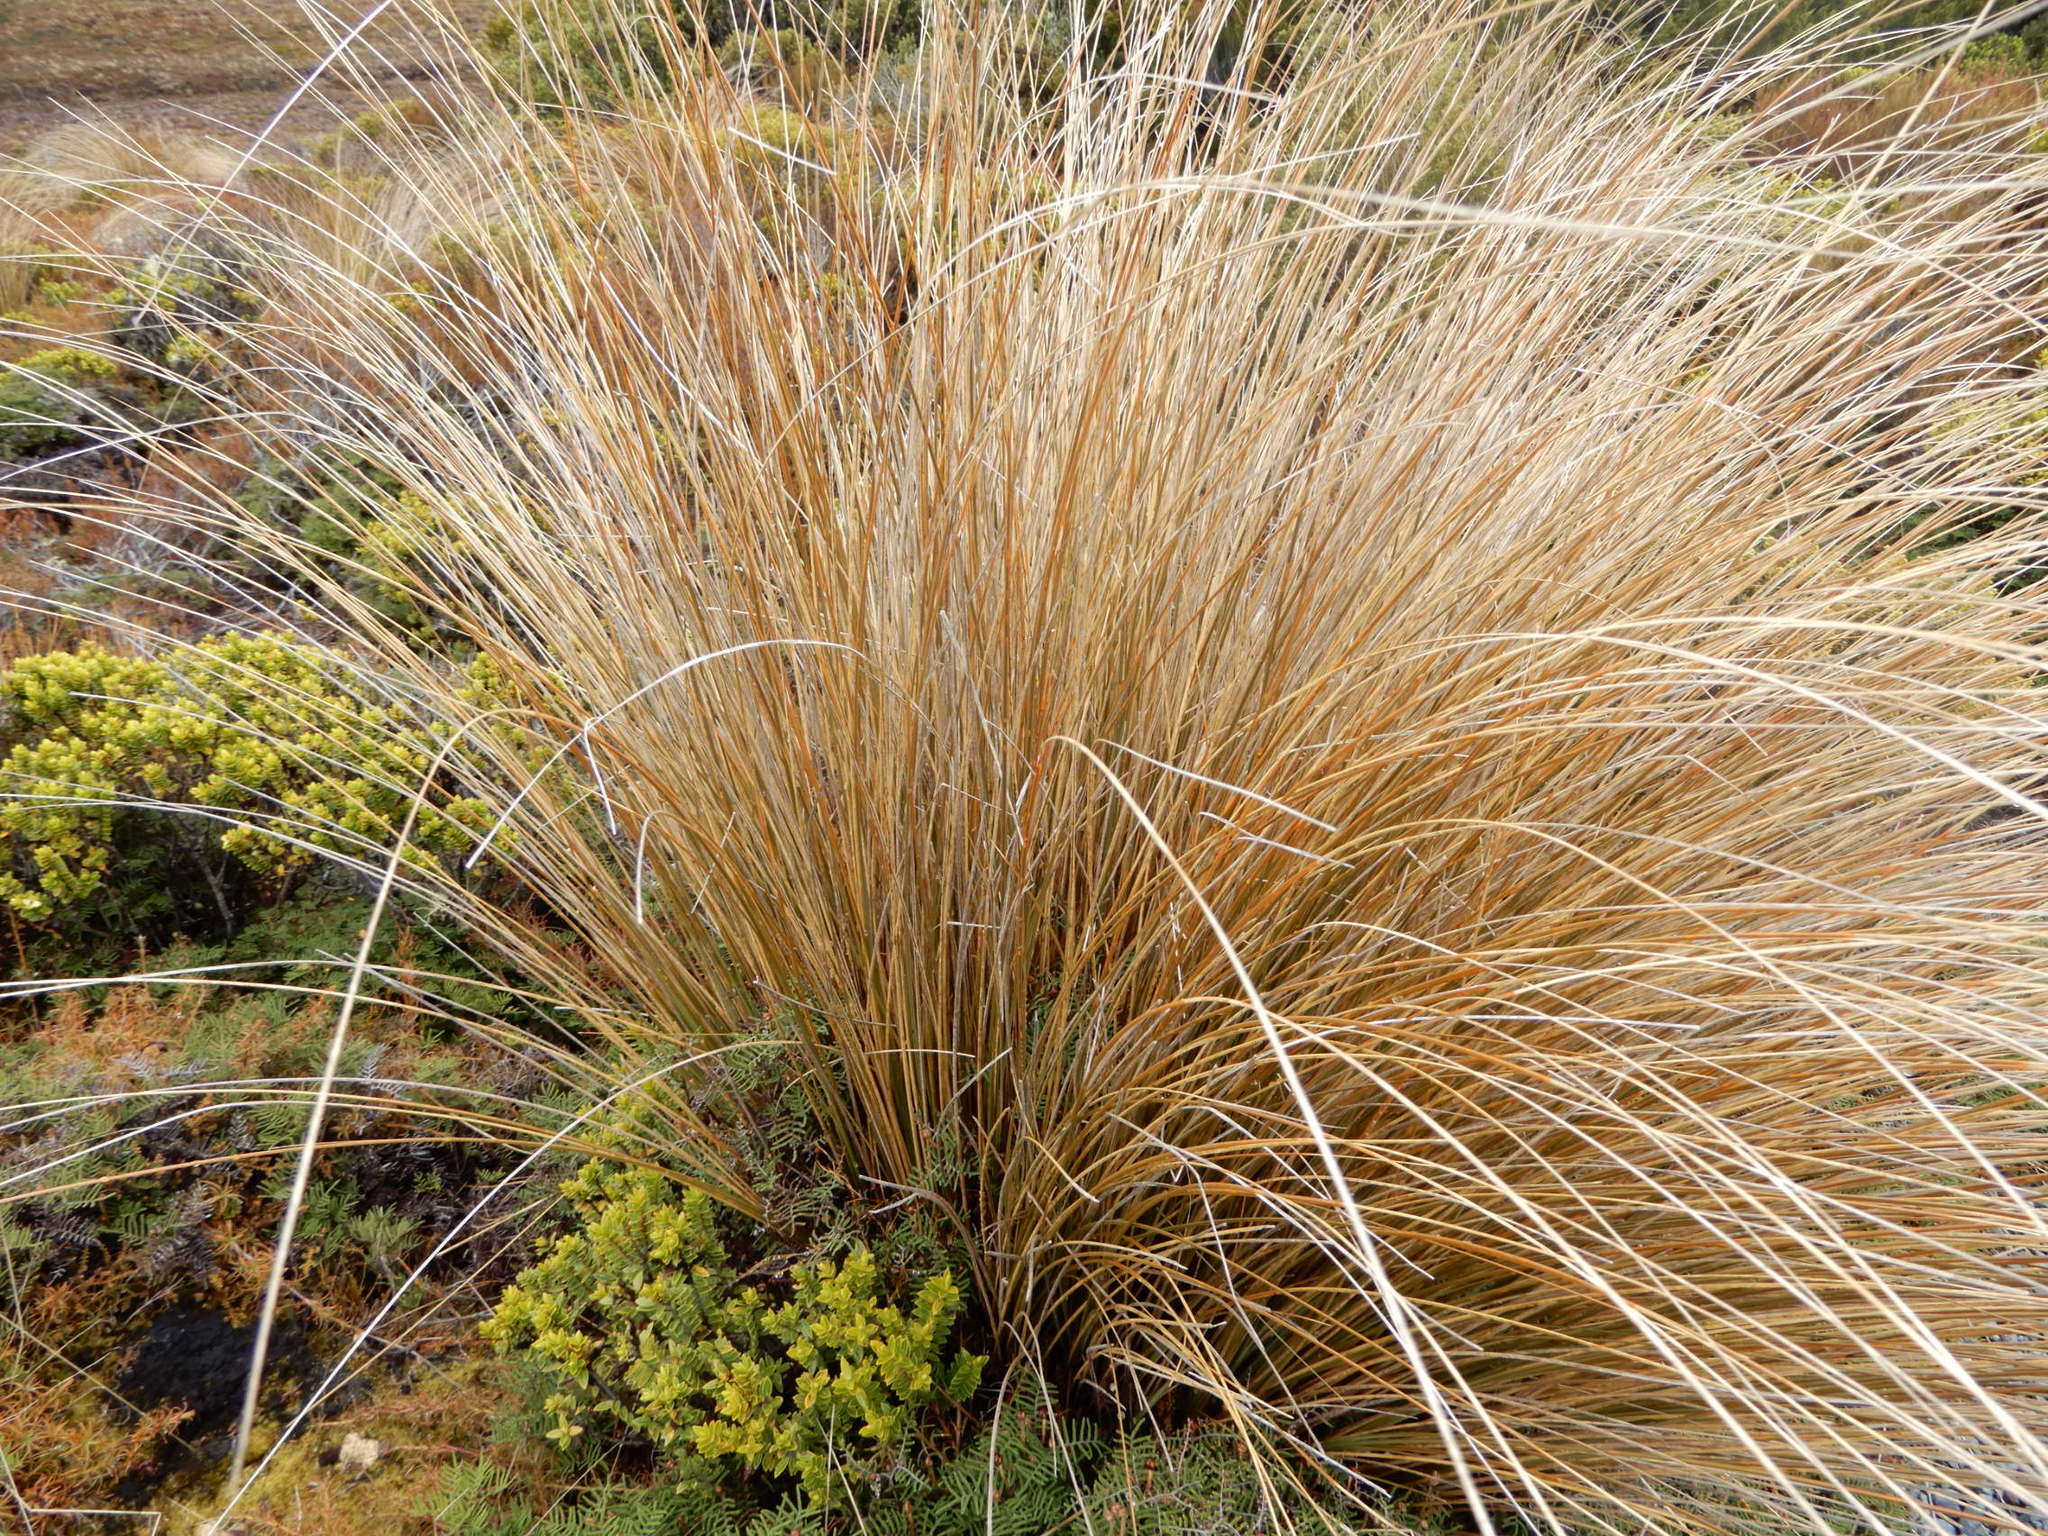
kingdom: Plantae
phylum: Tracheophyta
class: Liliopsida
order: Poales
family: Poaceae
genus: Chionochloa
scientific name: Chionochloa rubra
